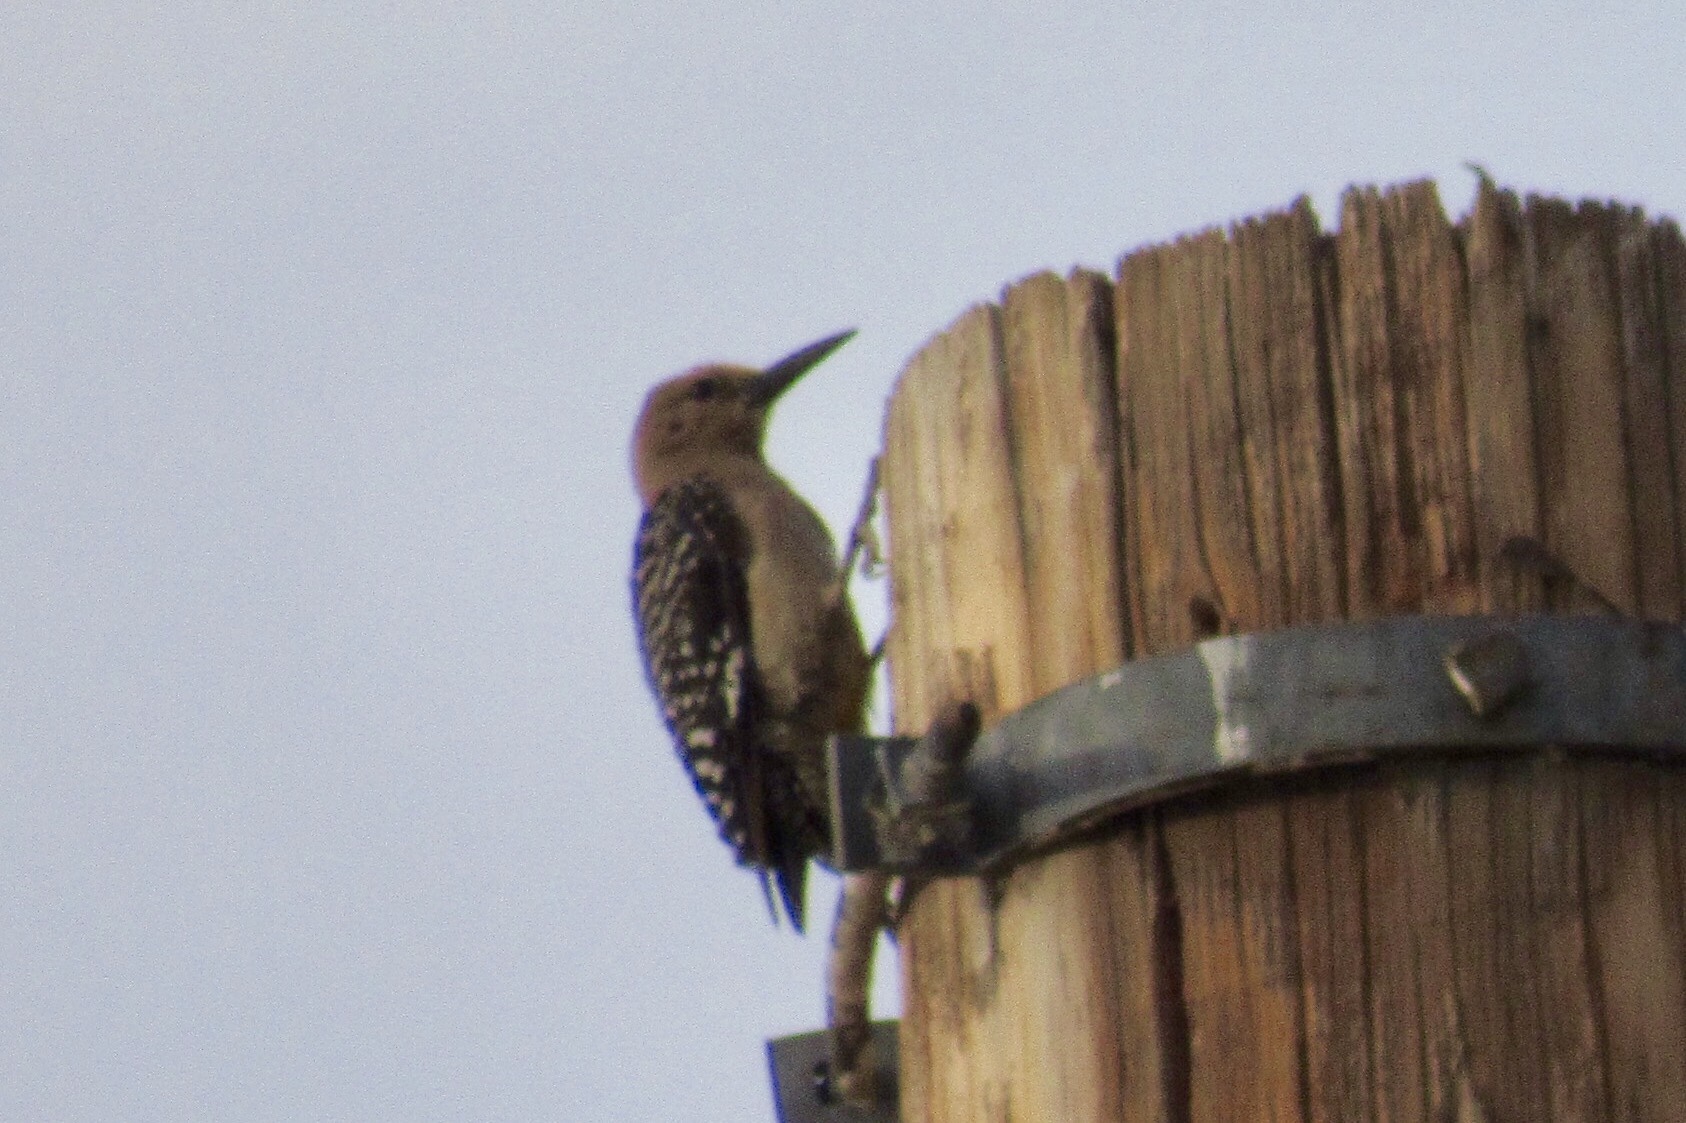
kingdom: Animalia
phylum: Chordata
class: Aves
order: Piciformes
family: Picidae
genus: Melanerpes
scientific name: Melanerpes uropygialis
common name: Gila woodpecker
